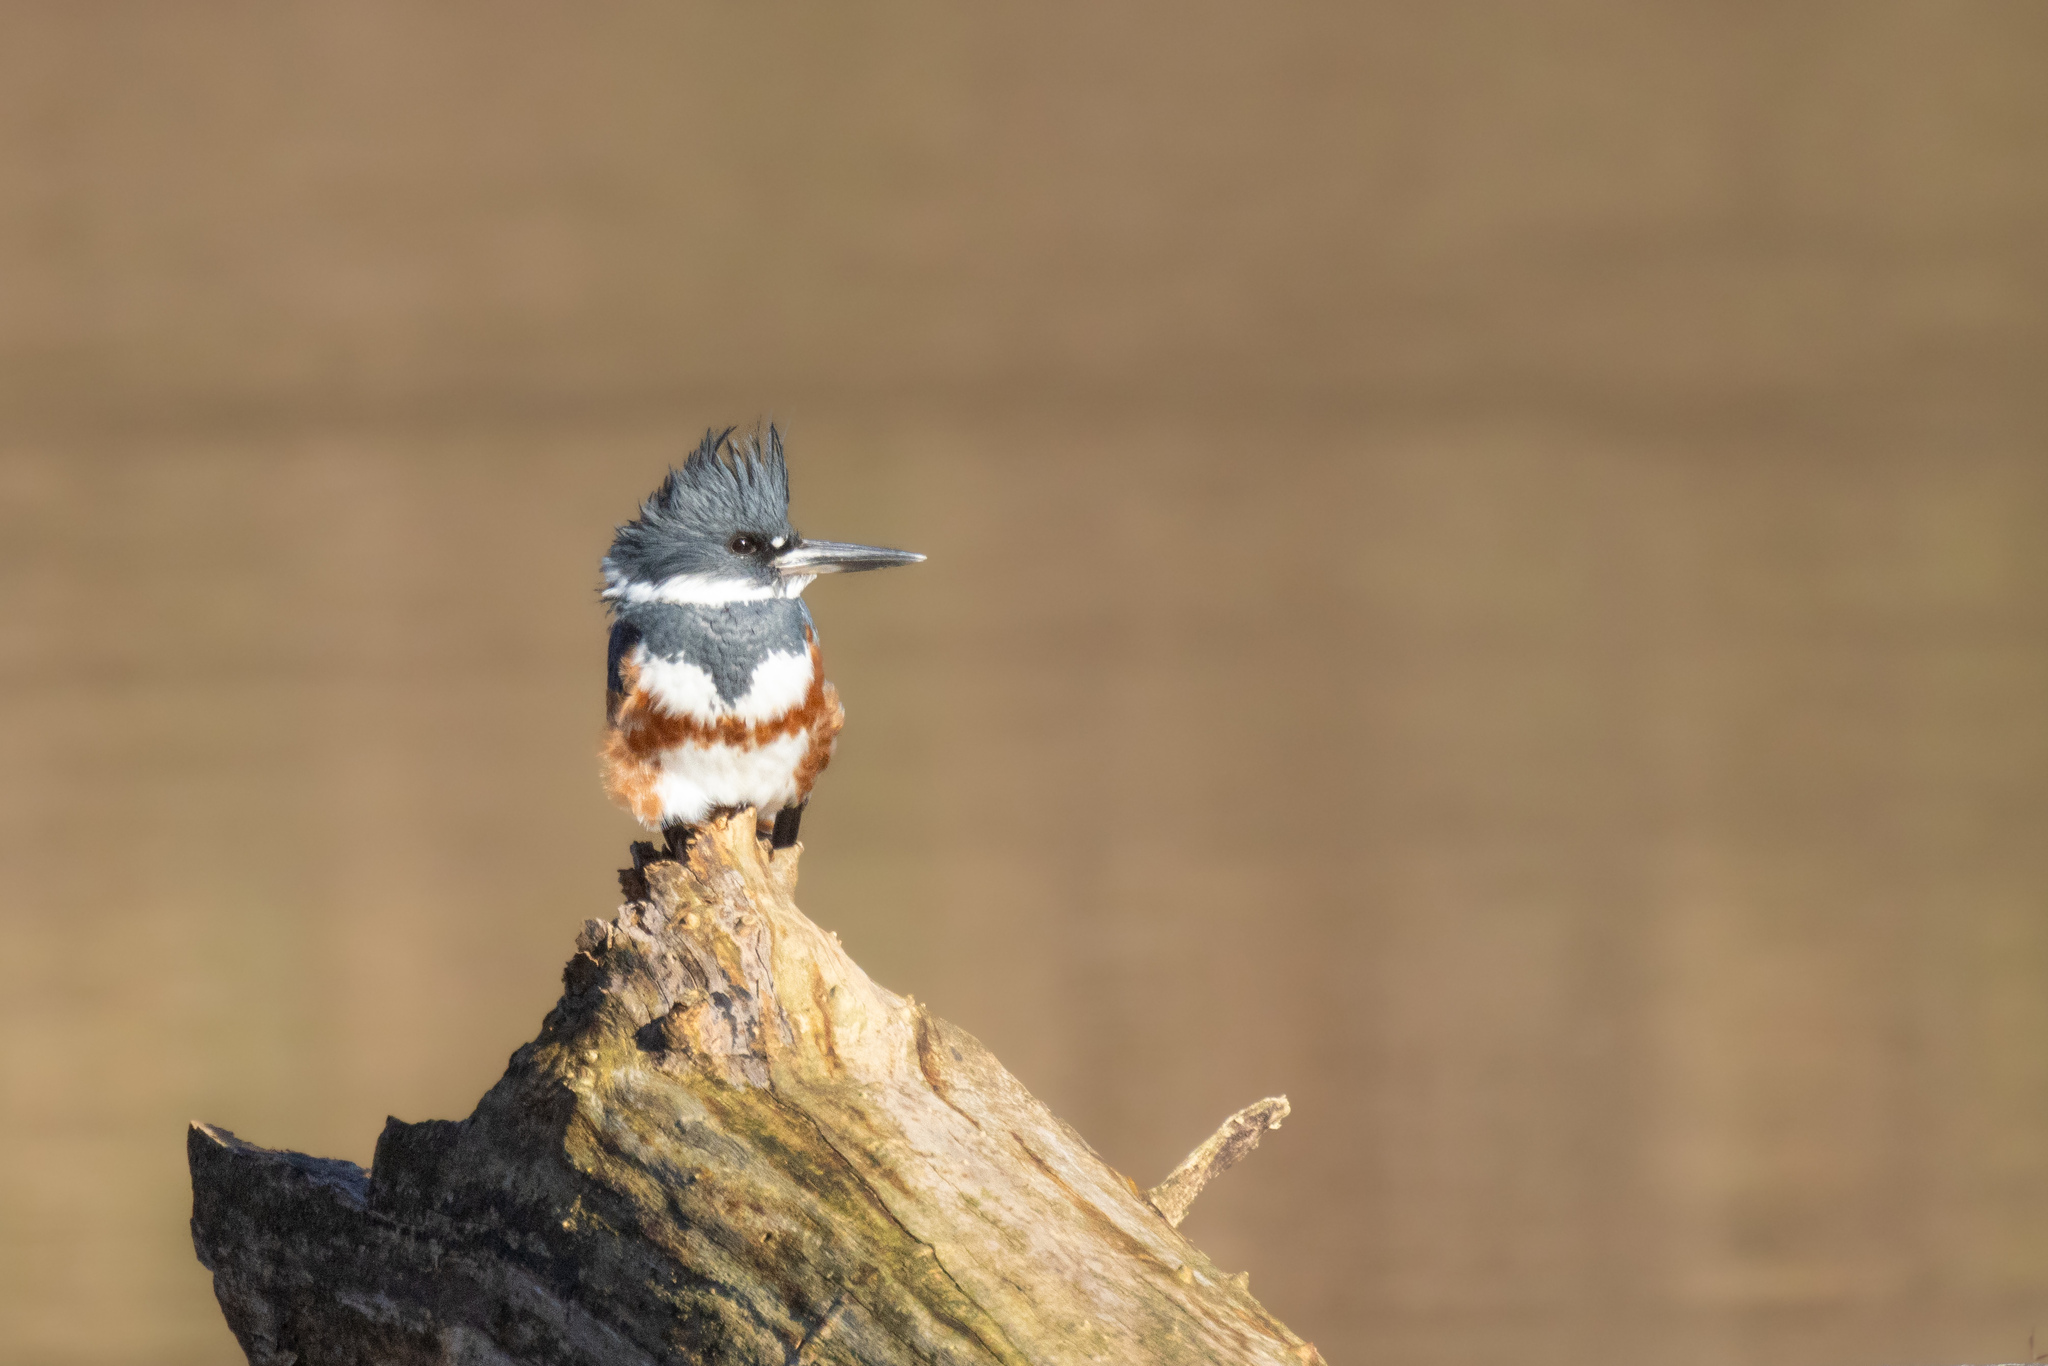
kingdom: Animalia
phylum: Chordata
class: Aves
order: Coraciiformes
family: Alcedinidae
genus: Megaceryle
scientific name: Megaceryle alcyon
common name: Belted kingfisher
